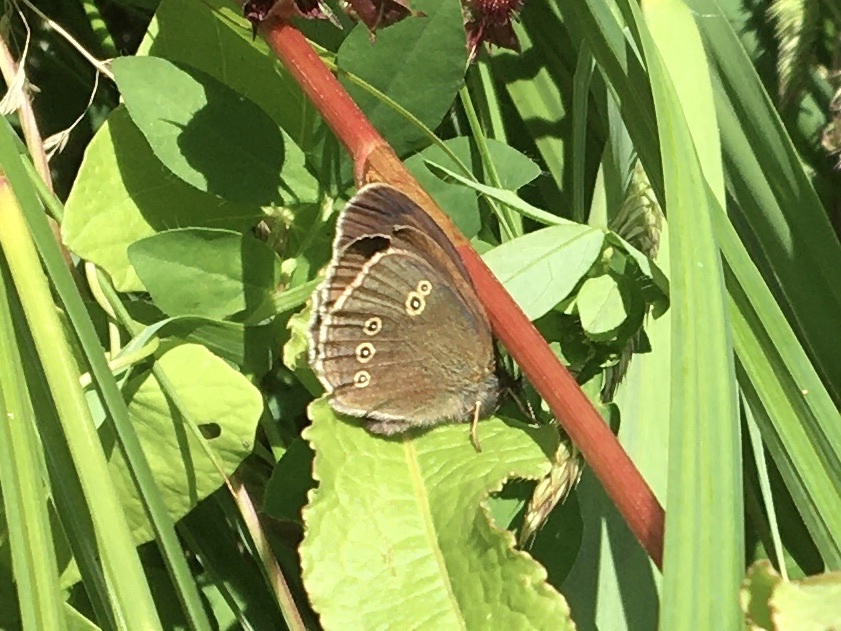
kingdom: Animalia
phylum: Arthropoda
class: Insecta
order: Lepidoptera
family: Nymphalidae
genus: Aphantopus
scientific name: Aphantopus hyperantus
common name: Ringlet
